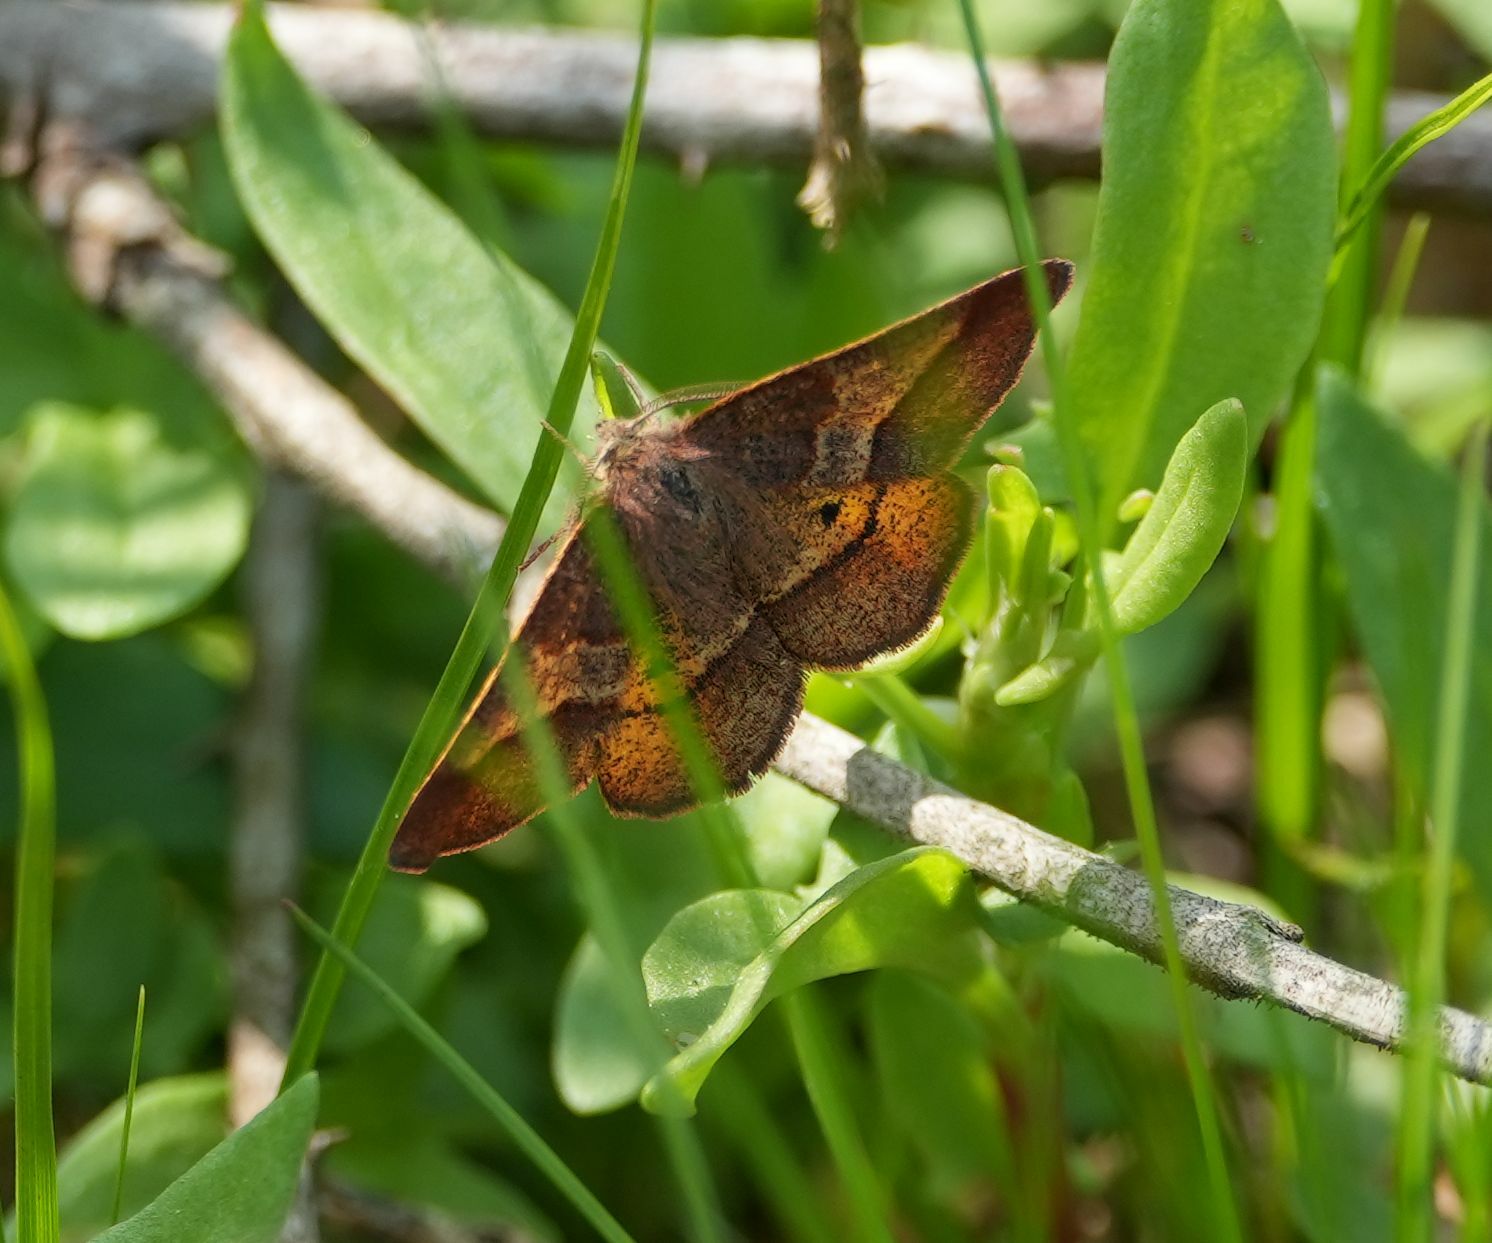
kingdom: Animalia
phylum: Arthropoda
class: Insecta
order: Lepidoptera
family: Geometridae
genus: Metarranthis
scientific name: Metarranthis obfirmaria
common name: Yellow-washed metarranthis
